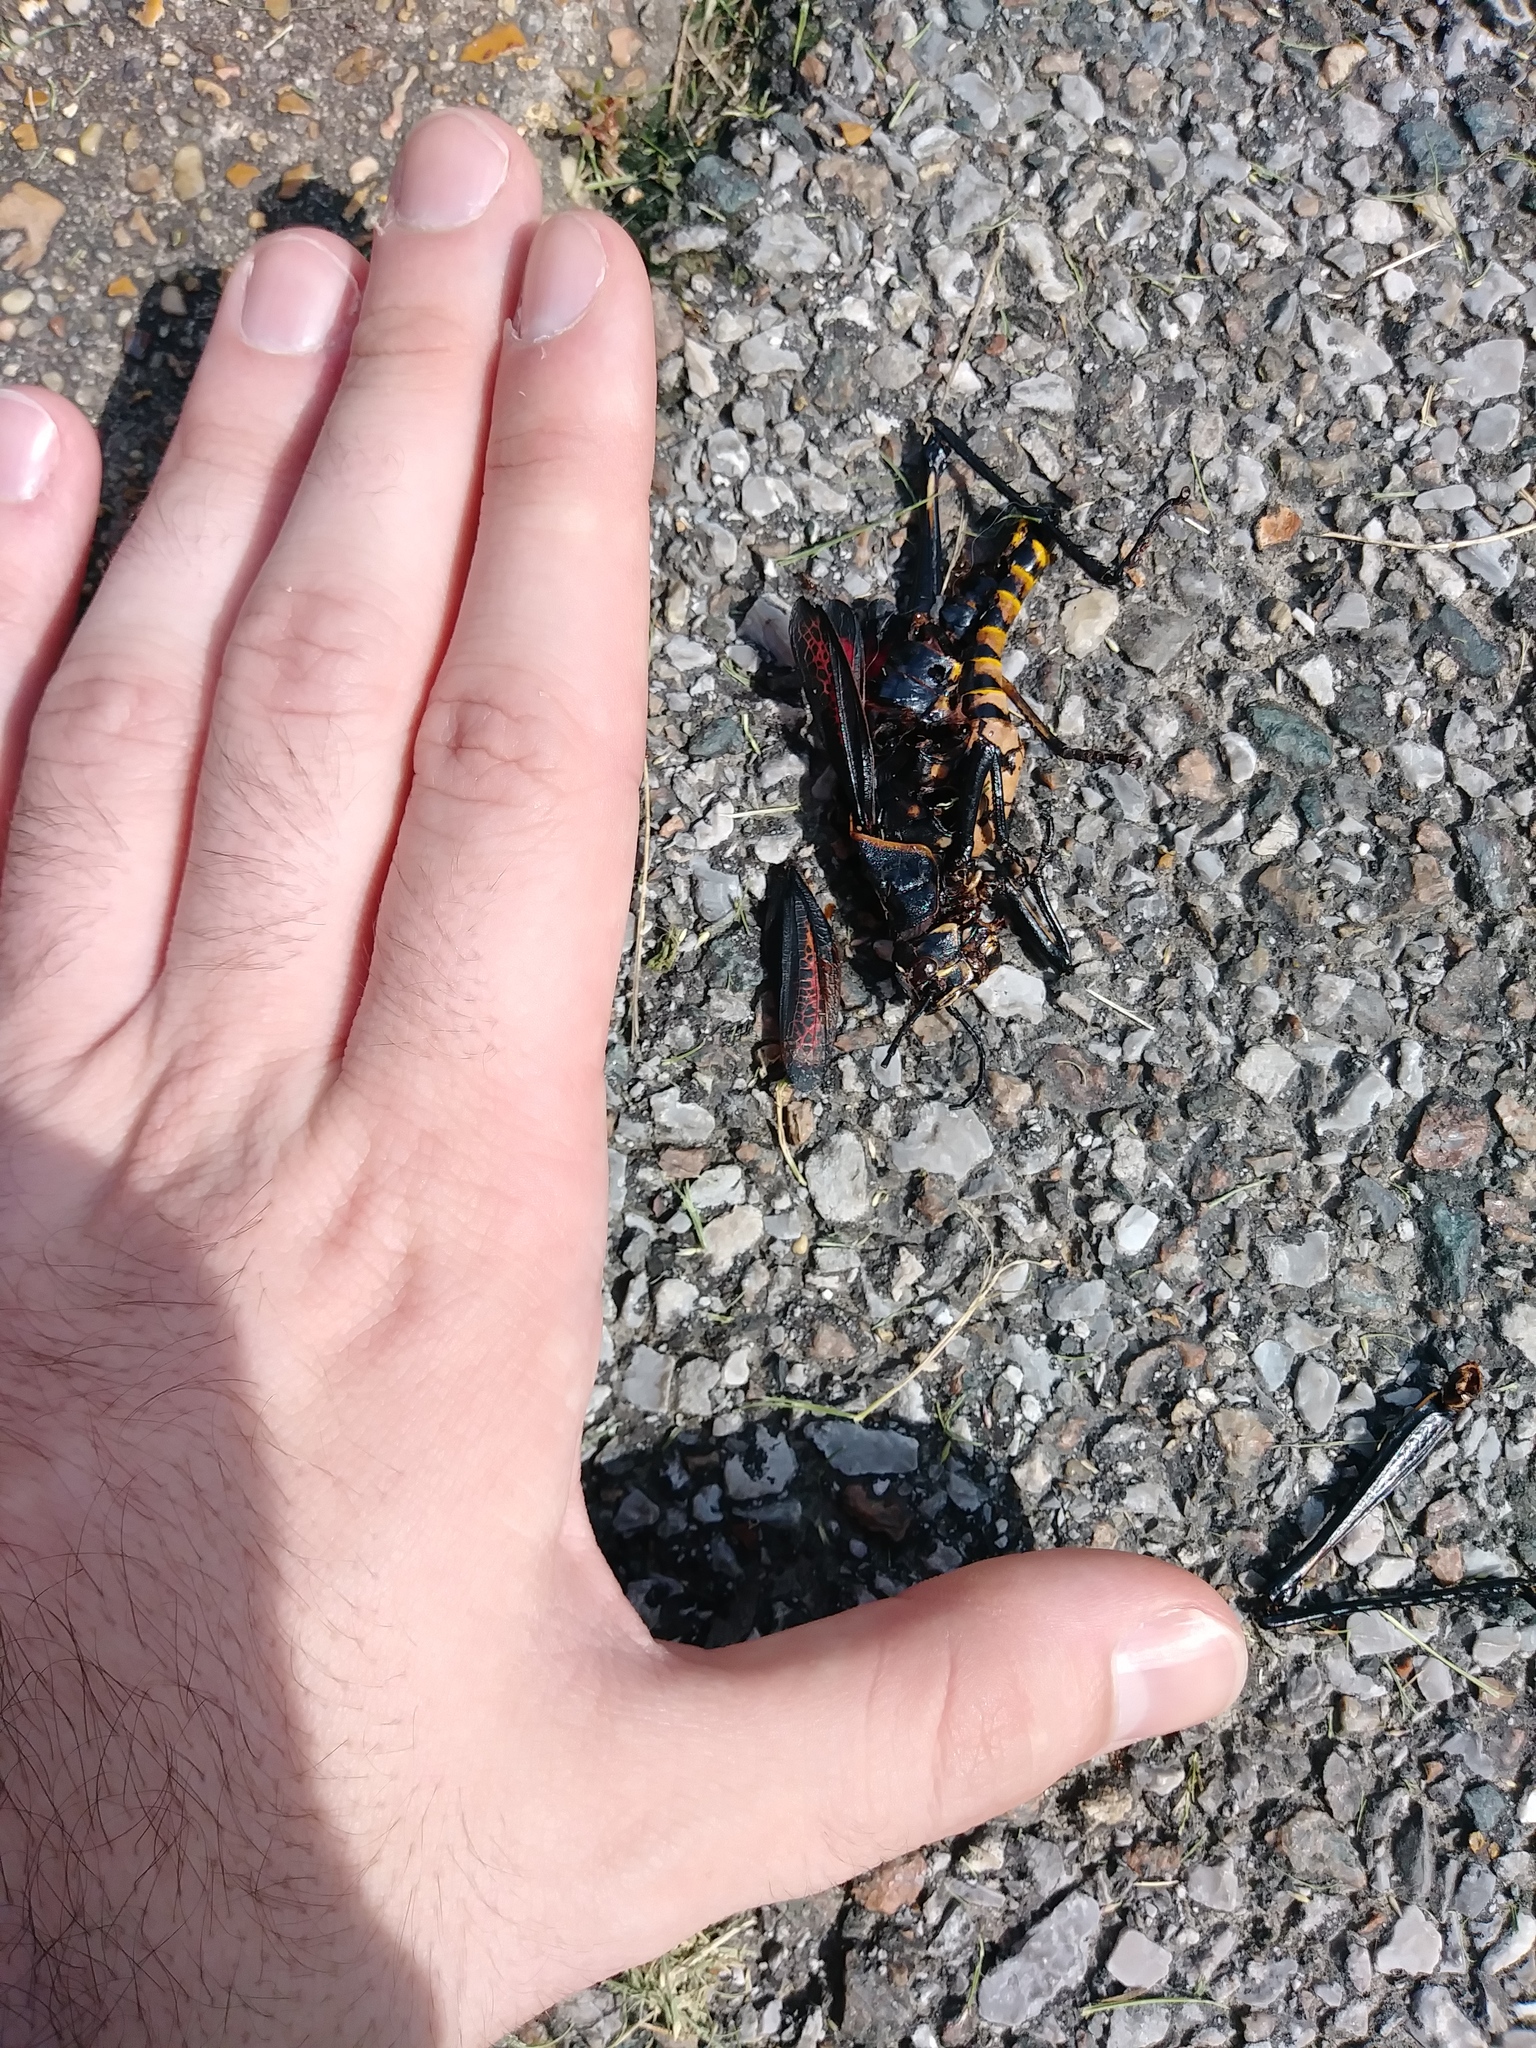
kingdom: Animalia
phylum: Arthropoda
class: Insecta
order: Orthoptera
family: Romaleidae
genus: Romalea
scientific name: Romalea microptera
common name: Eastern lubber grasshopper
